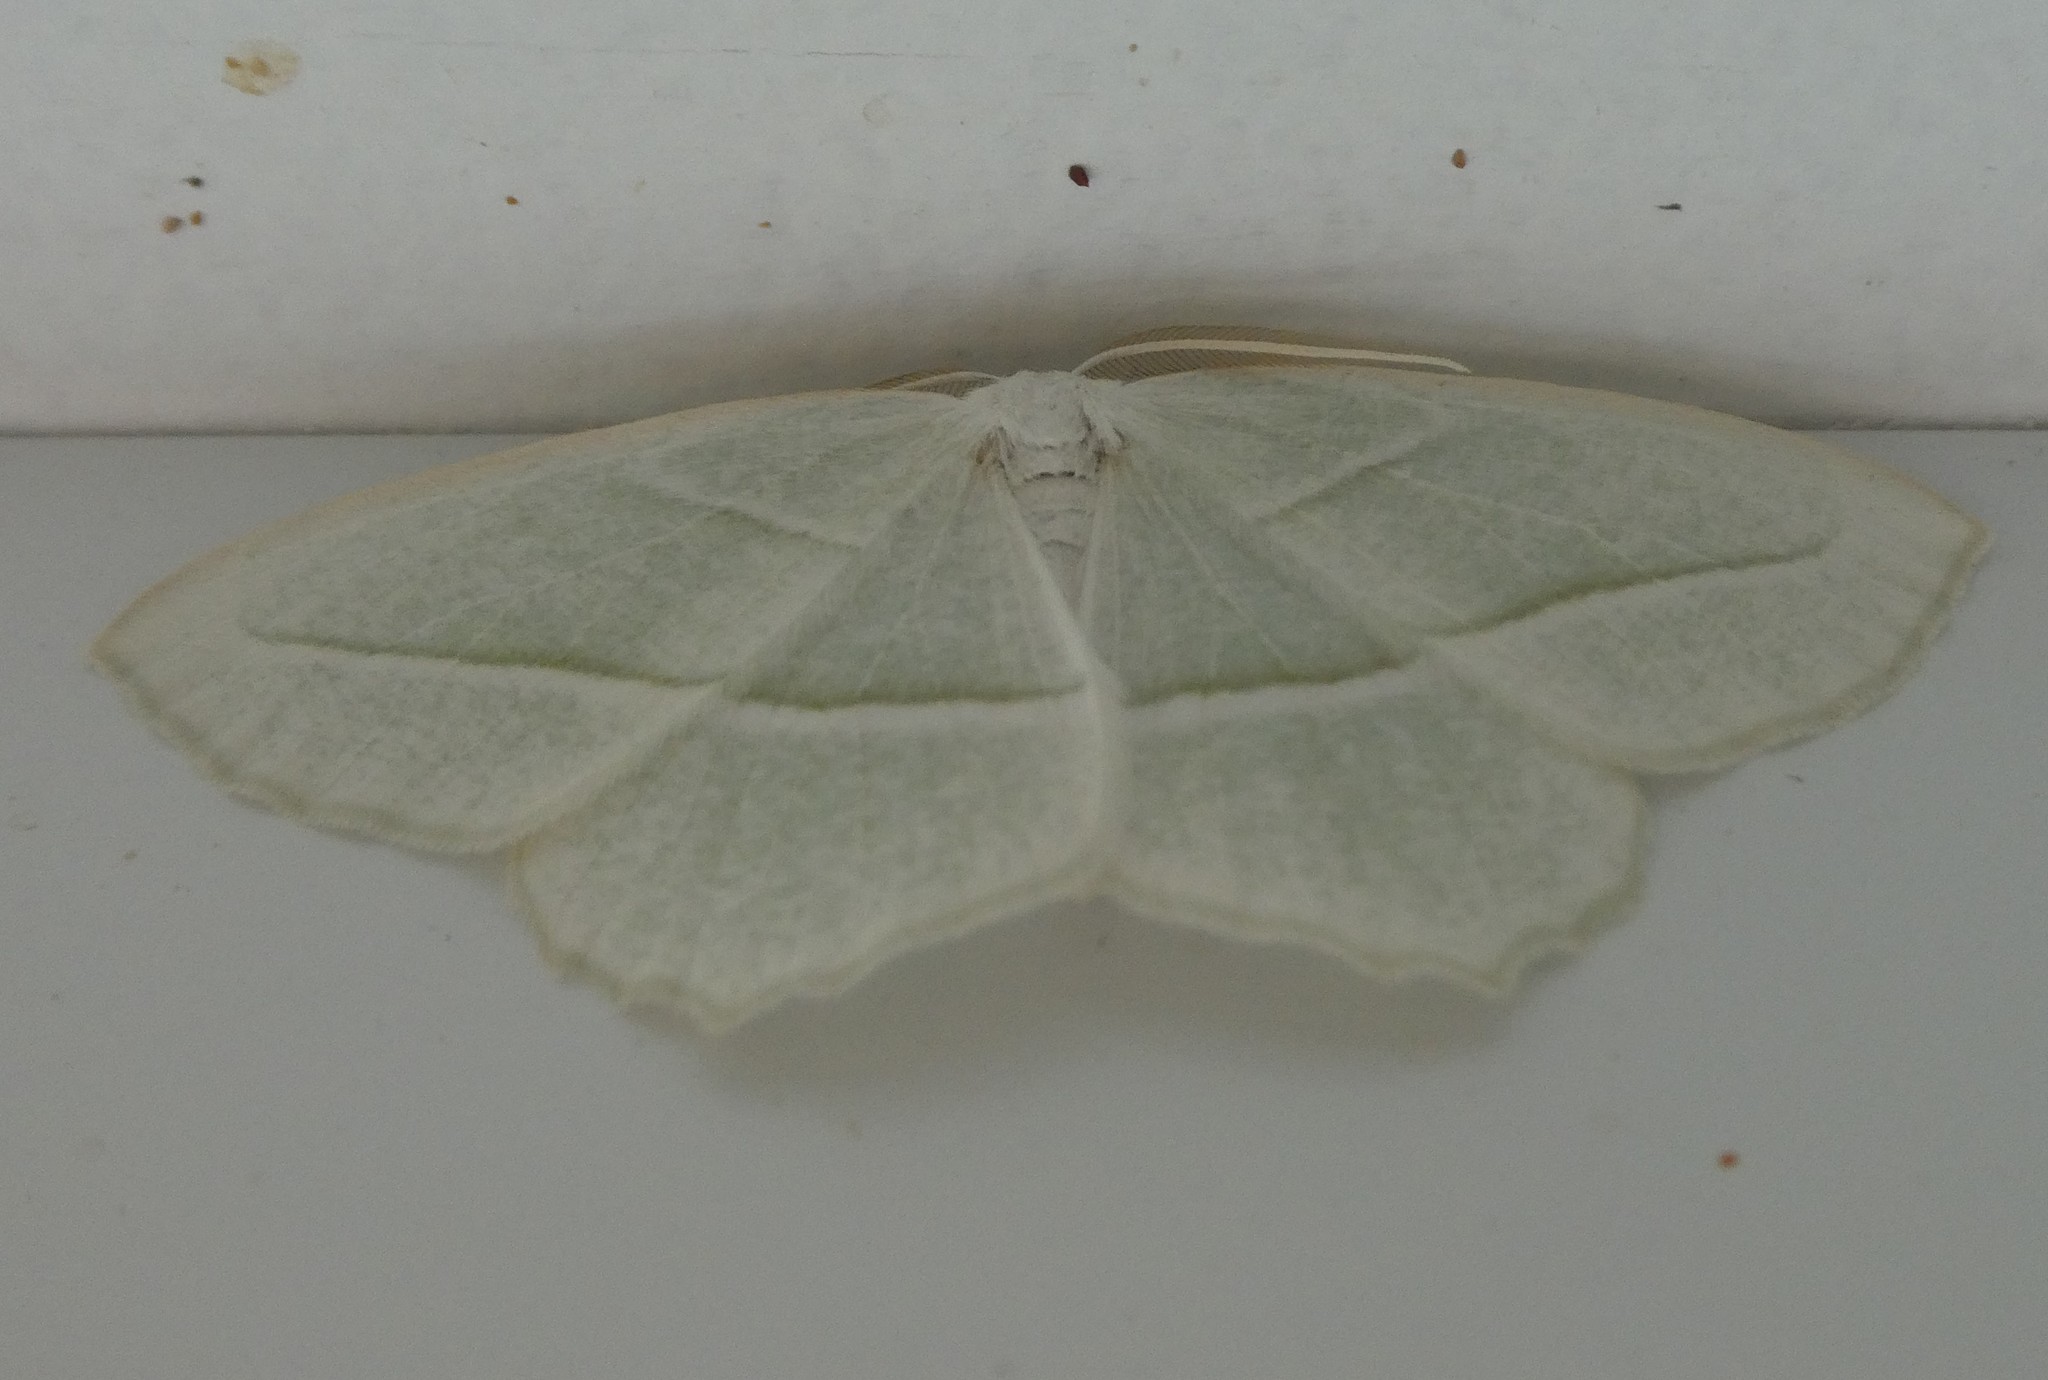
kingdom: Animalia
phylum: Arthropoda
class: Insecta
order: Lepidoptera
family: Geometridae
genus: Campaea
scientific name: Campaea perlata
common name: Fringed looper
